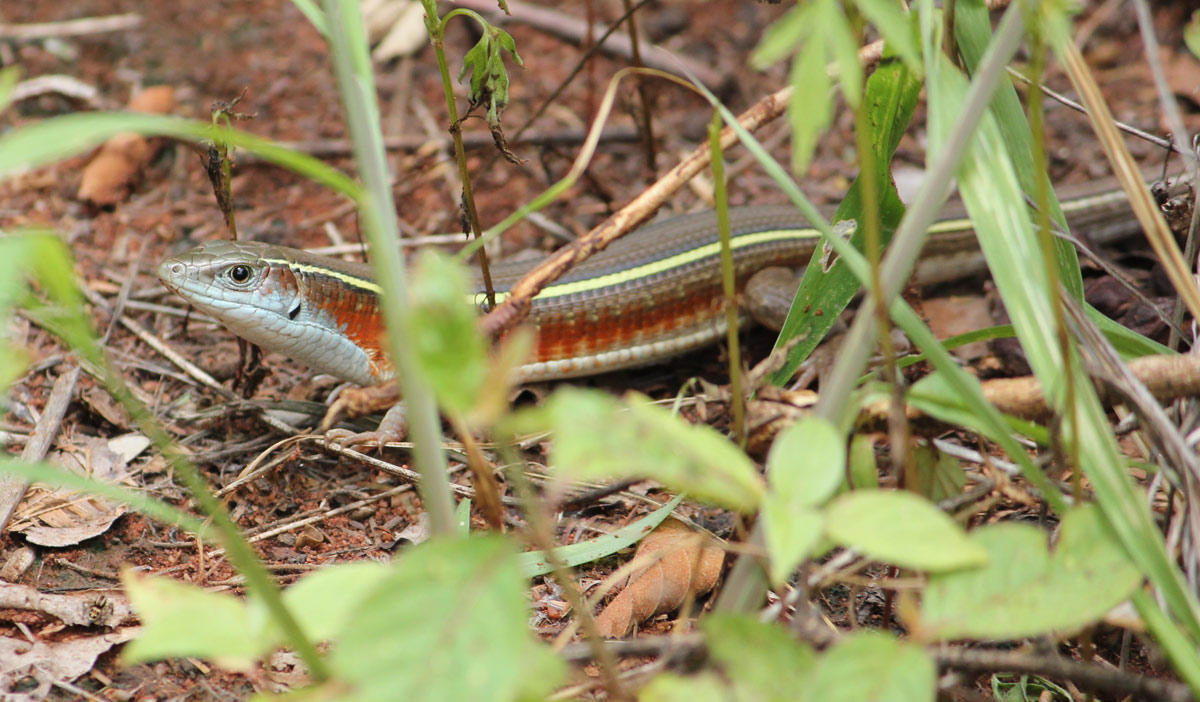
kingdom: Animalia
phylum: Chordata
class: Squamata
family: Gerrhosauridae
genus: Gerrhosaurus
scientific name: Gerrhosaurus flavigularis
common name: Yellow-throated plated lizard
